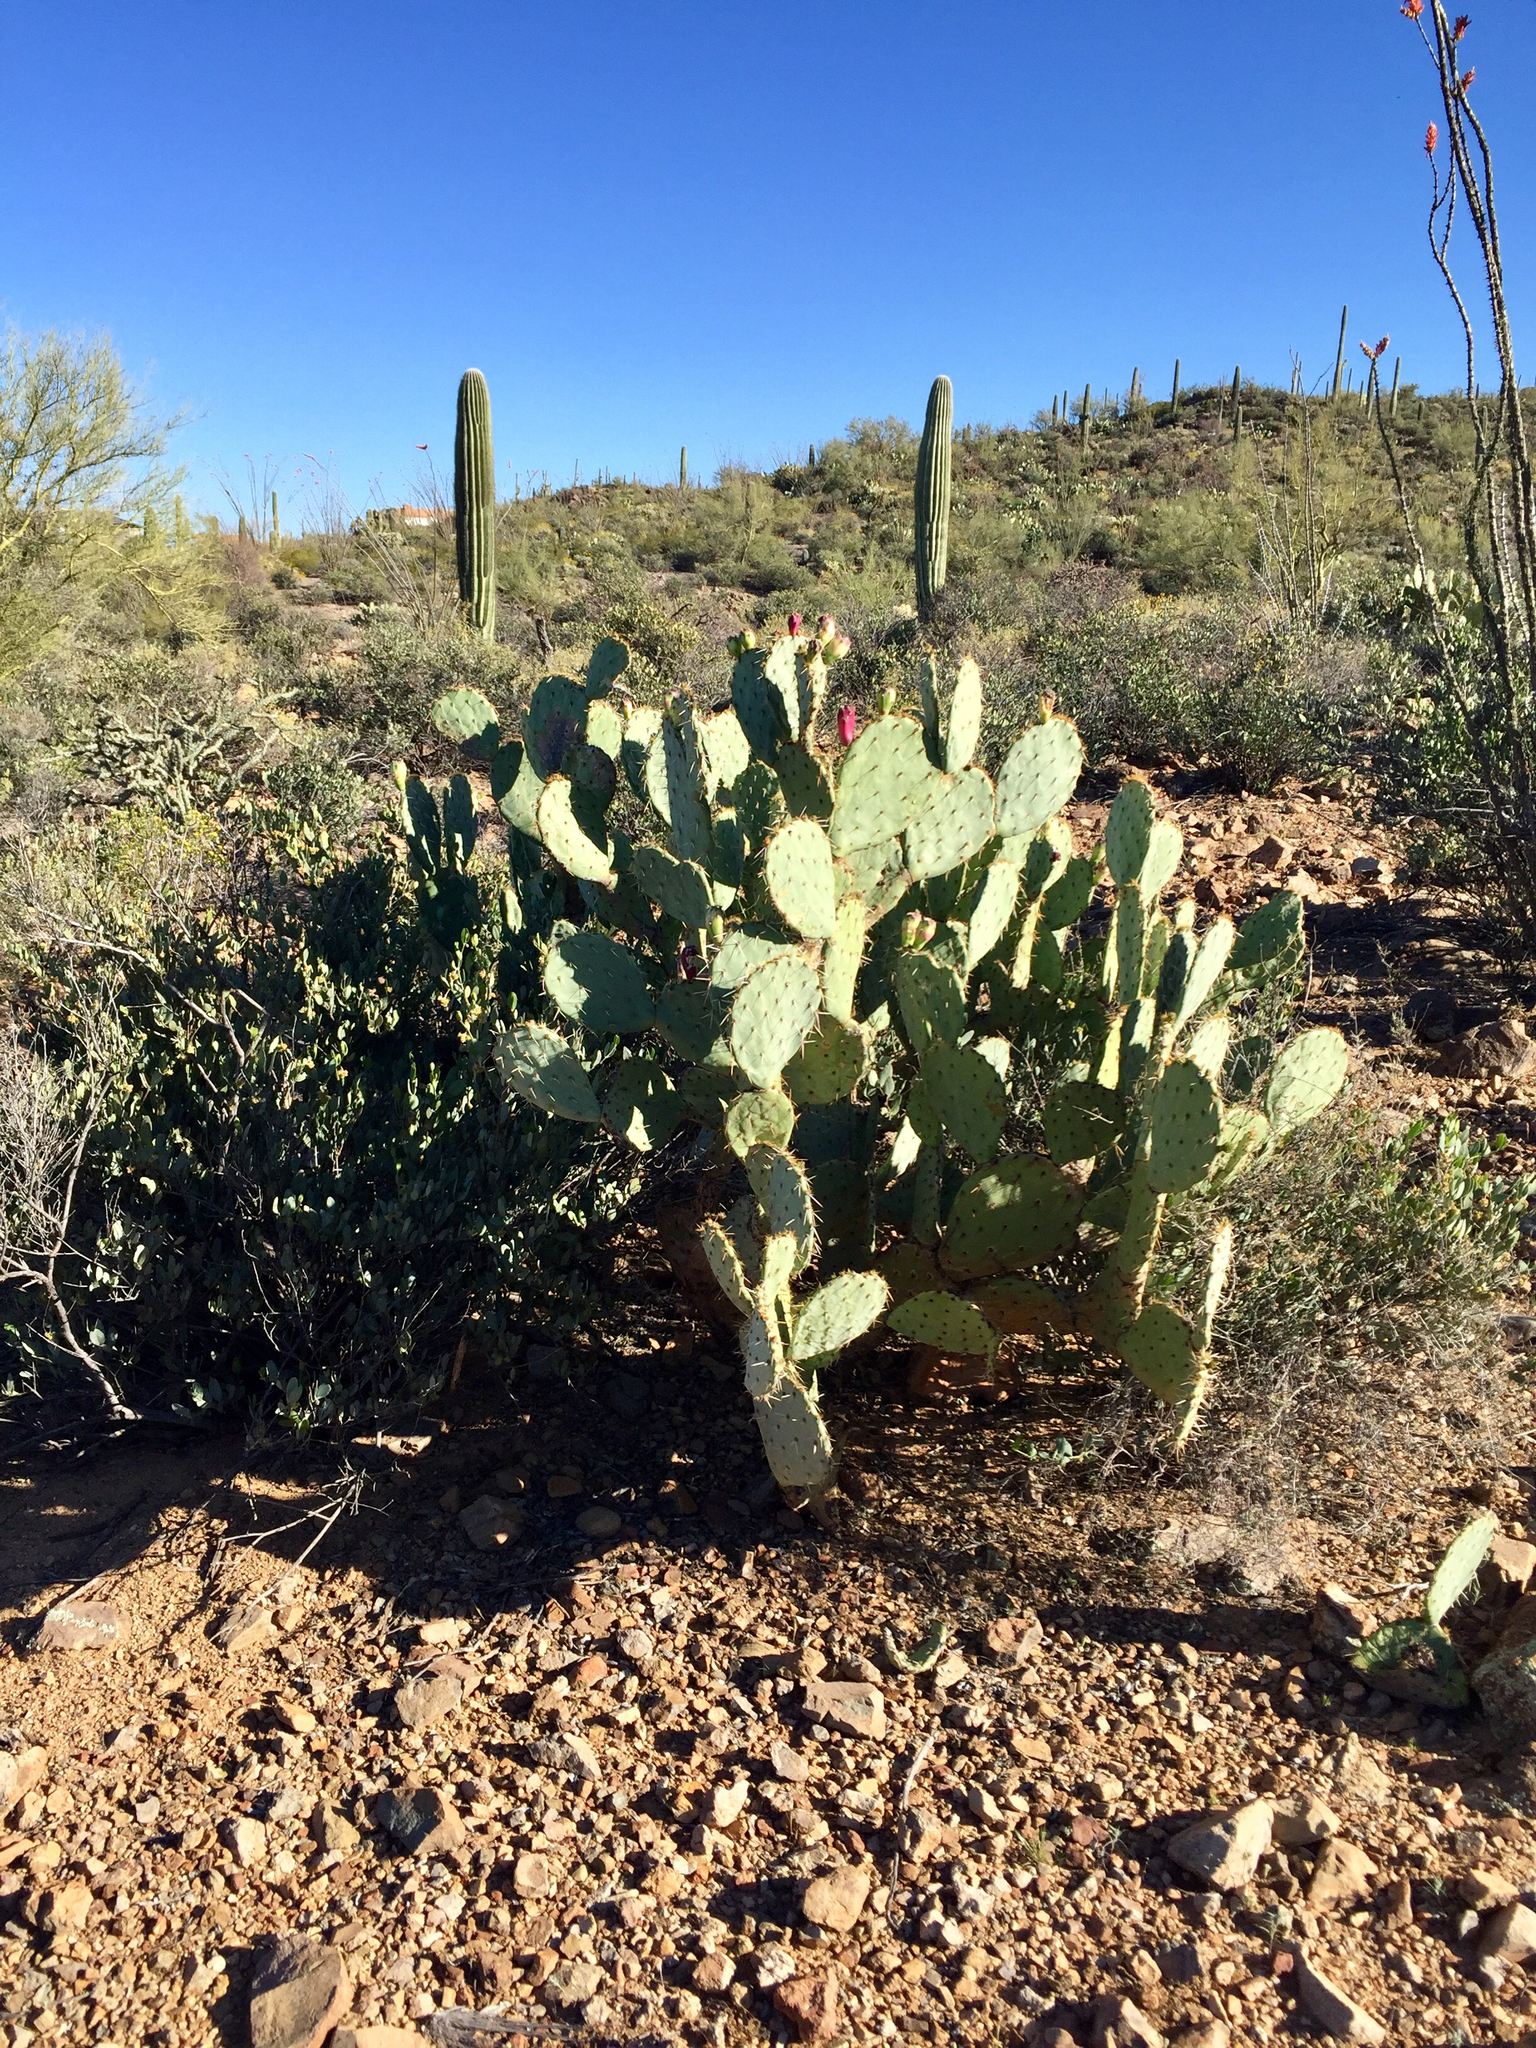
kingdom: Plantae
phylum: Tracheophyta
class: Magnoliopsida
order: Caryophyllales
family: Cactaceae
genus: Opuntia
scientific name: Opuntia engelmannii
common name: Cactus-apple
